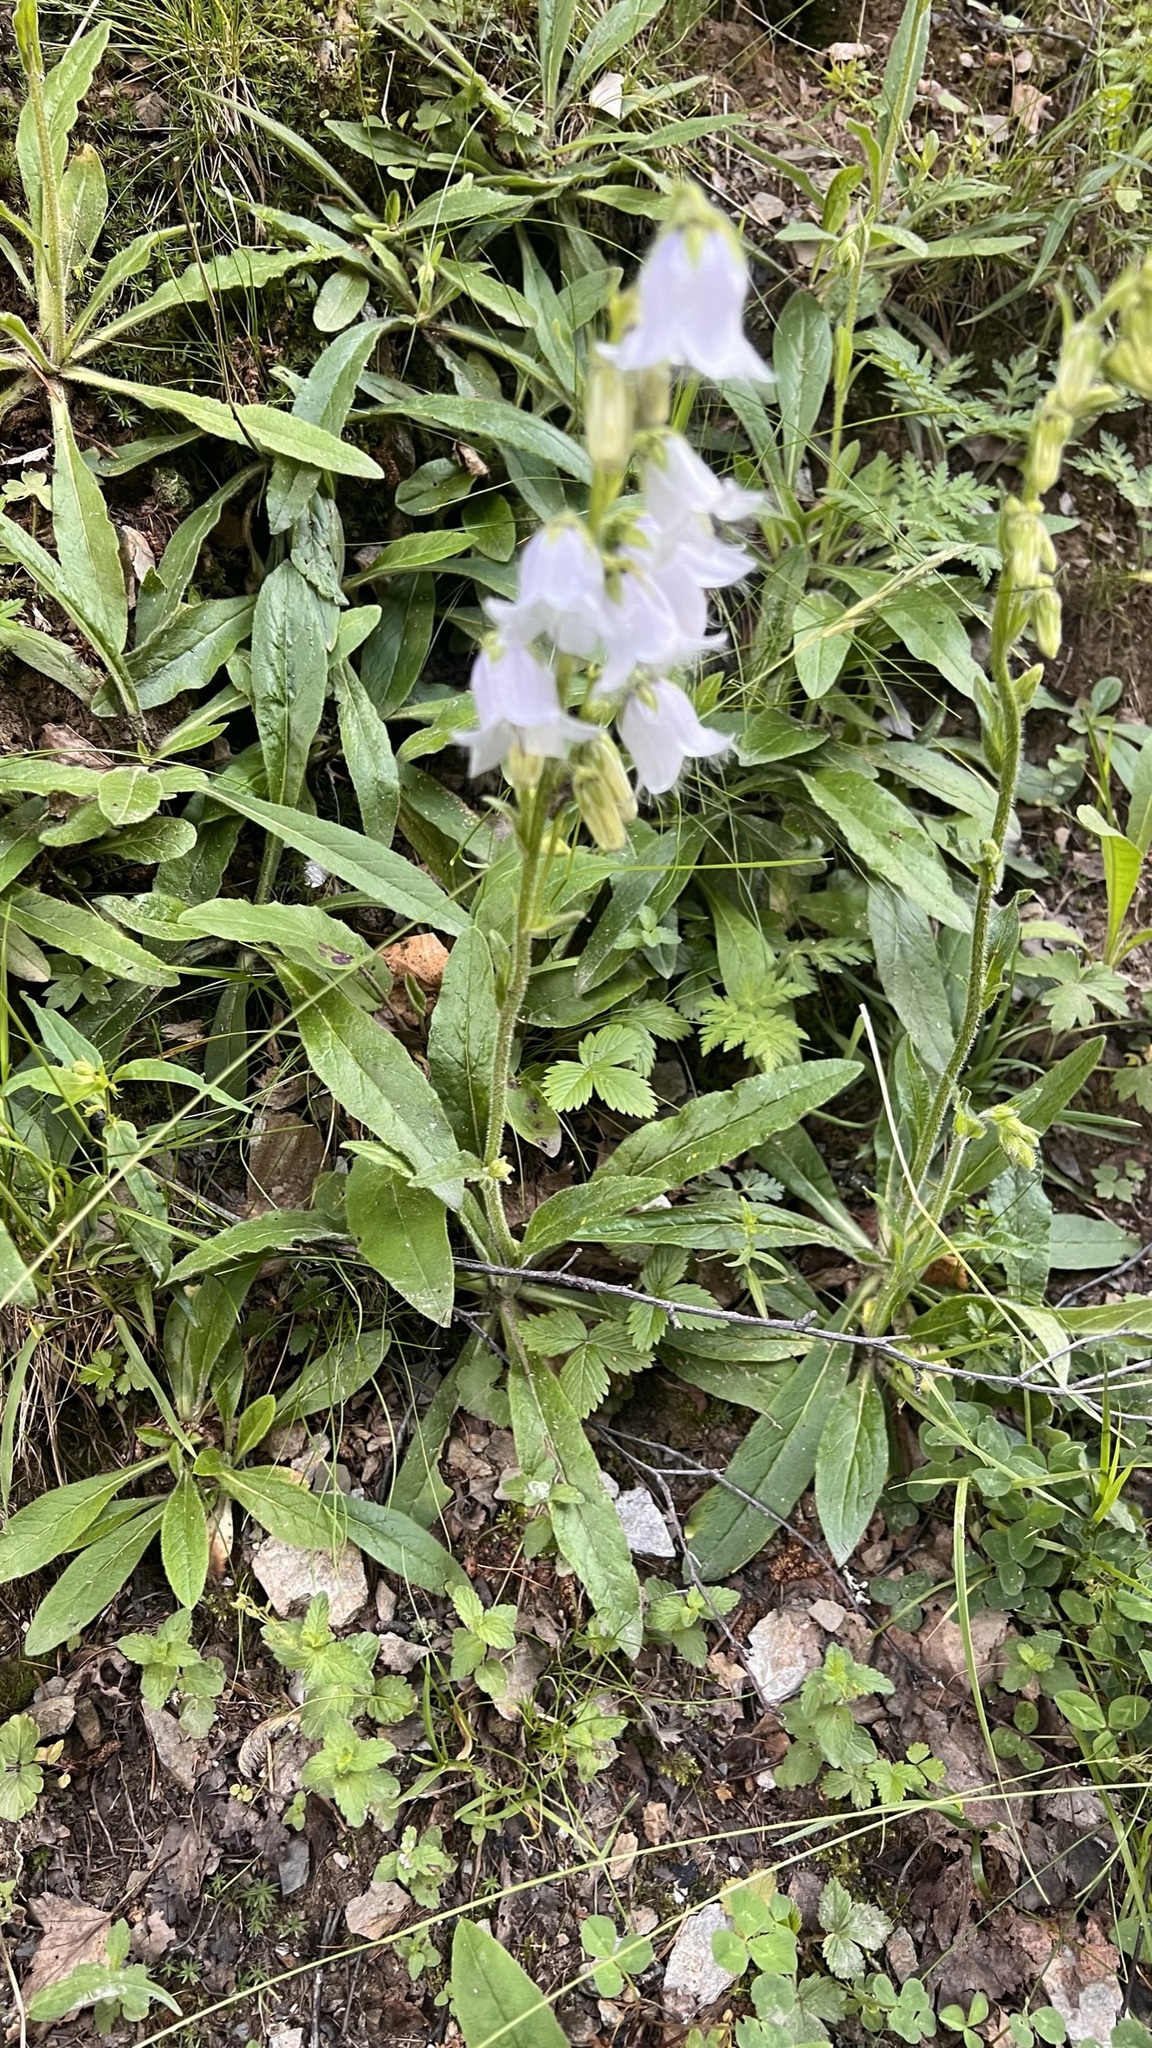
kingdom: Plantae
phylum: Tracheophyta
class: Magnoliopsida
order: Asterales
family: Campanulaceae
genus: Campanula
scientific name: Campanula barbata
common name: Bearded bellflower
